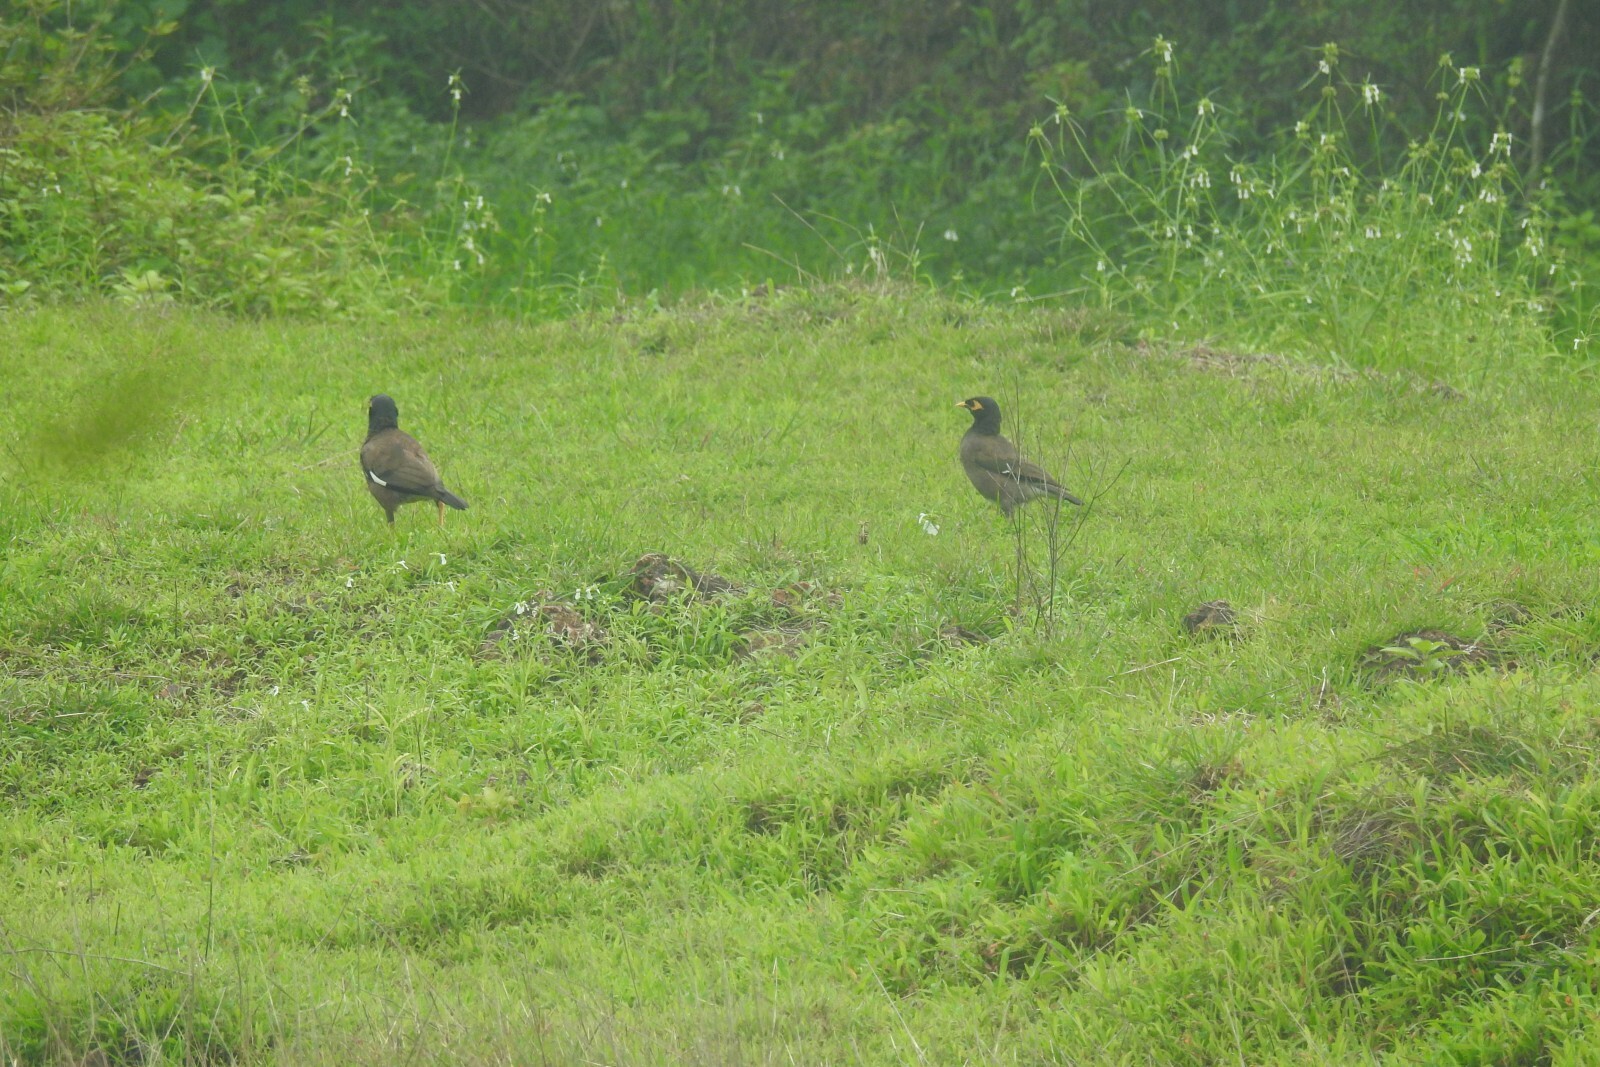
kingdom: Animalia
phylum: Chordata
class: Aves
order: Passeriformes
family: Sturnidae
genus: Acridotheres
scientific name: Acridotheres tristis
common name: Common myna
